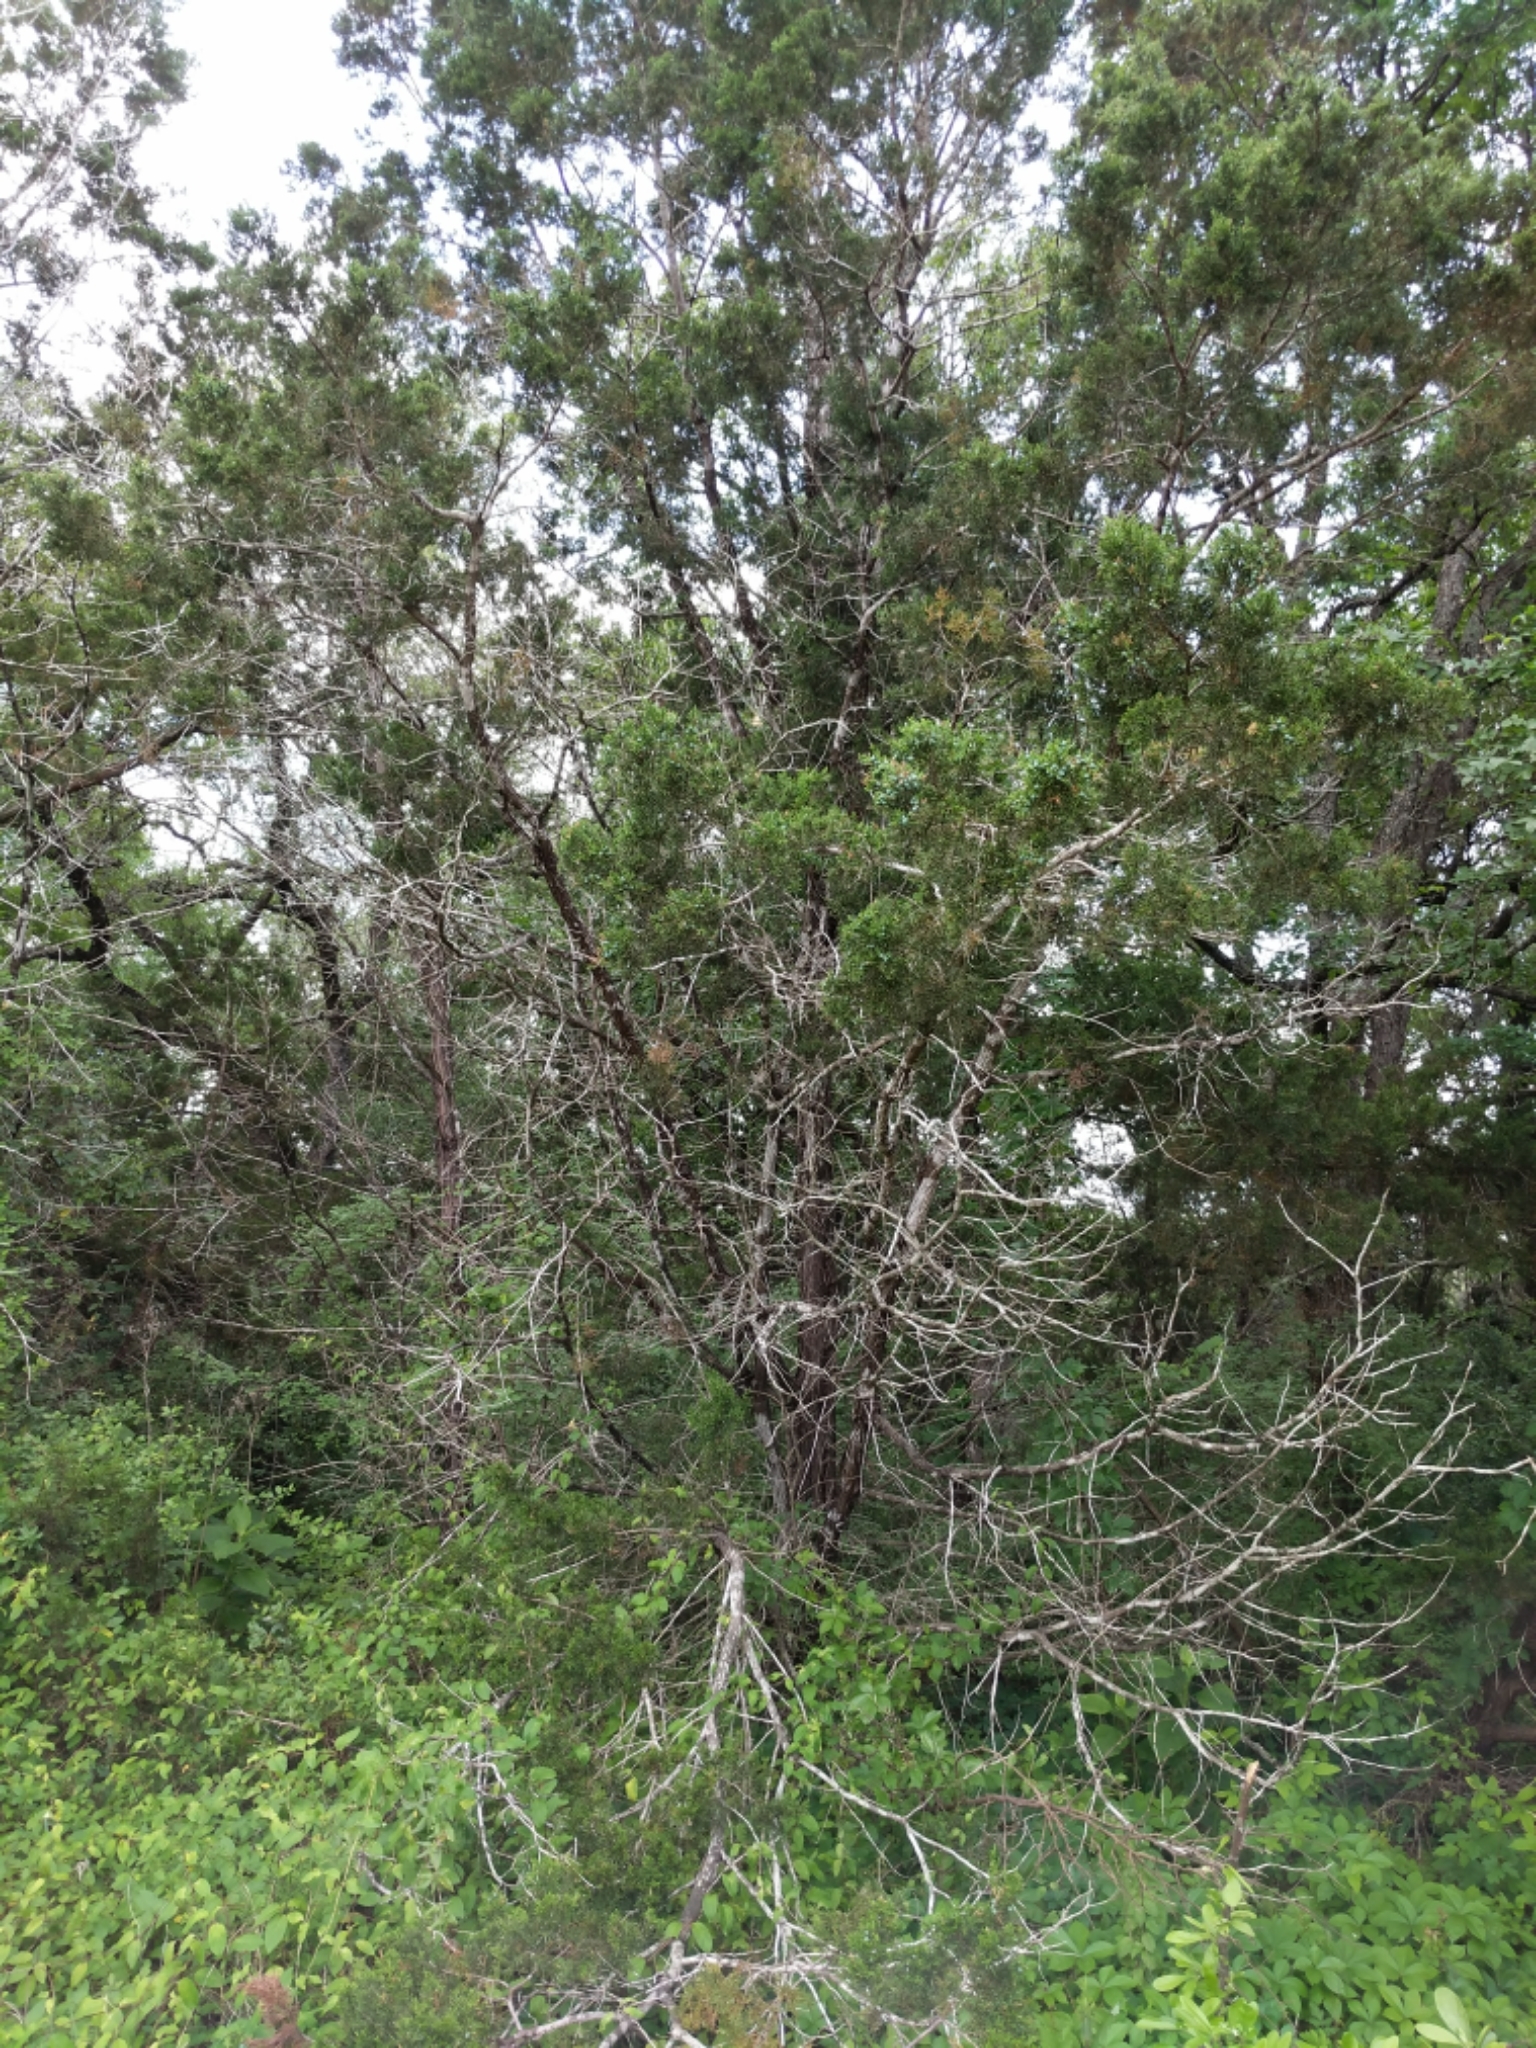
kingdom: Plantae
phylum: Tracheophyta
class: Pinopsida
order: Pinales
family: Cupressaceae
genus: Juniperus
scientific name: Juniperus ashei
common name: Mexican juniper
